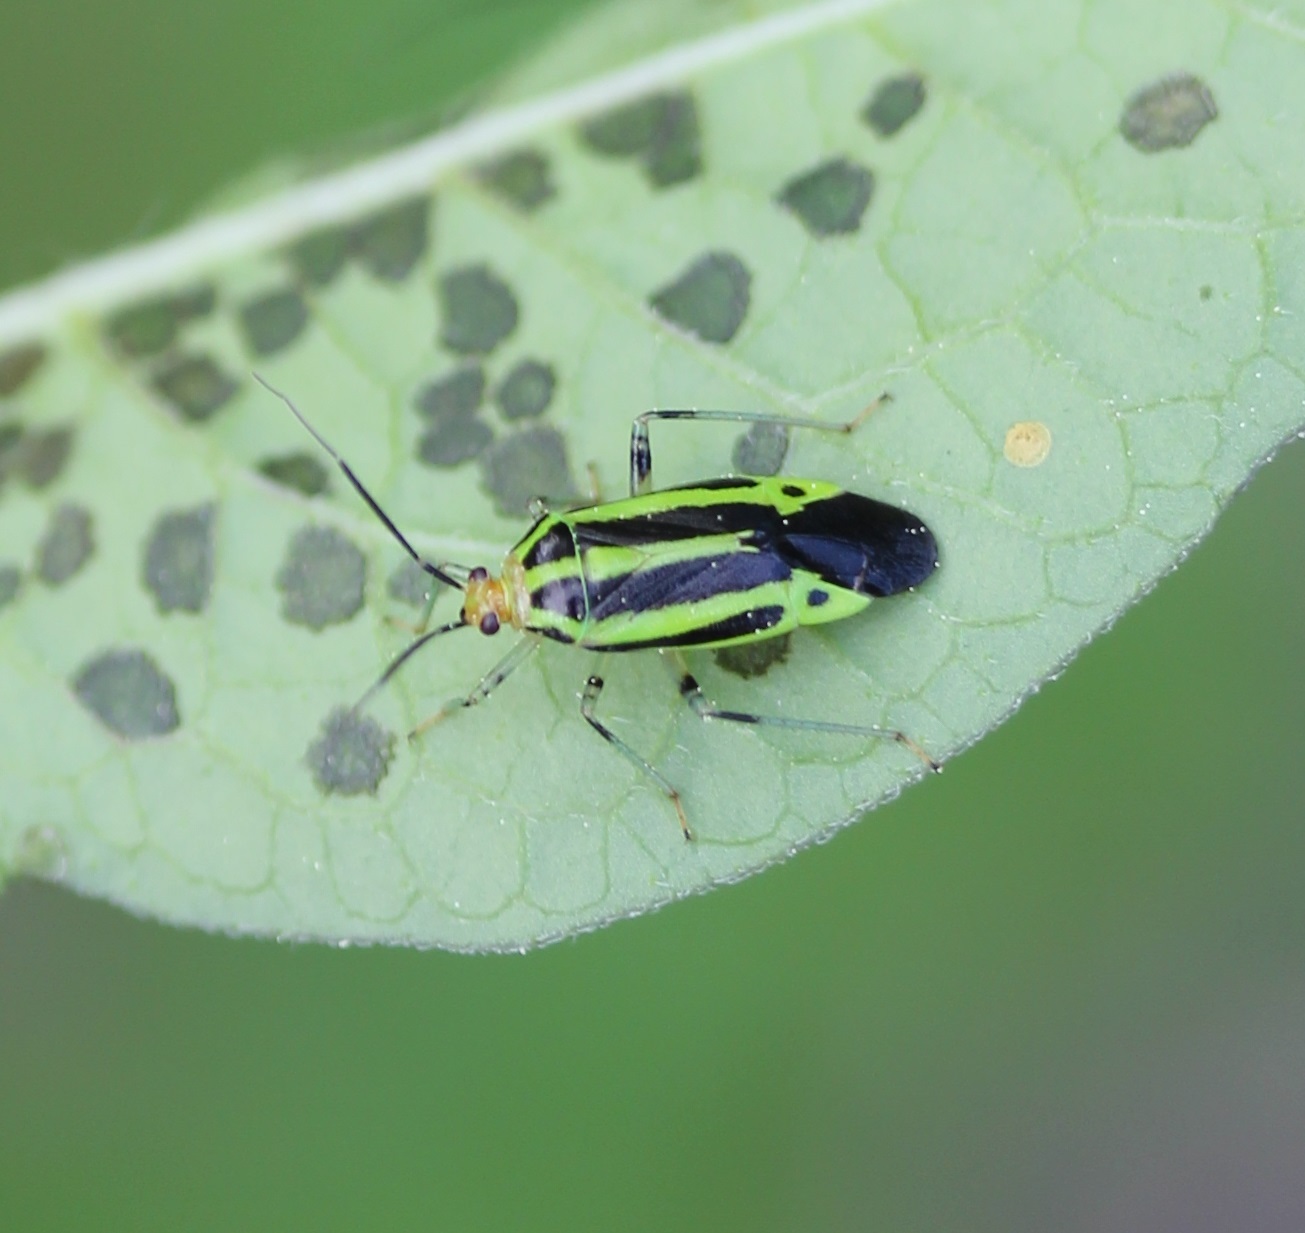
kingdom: Animalia
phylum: Arthropoda
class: Insecta
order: Hemiptera
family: Miridae
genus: Poecilocapsus
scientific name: Poecilocapsus lineatus
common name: Four-lined plant bug
